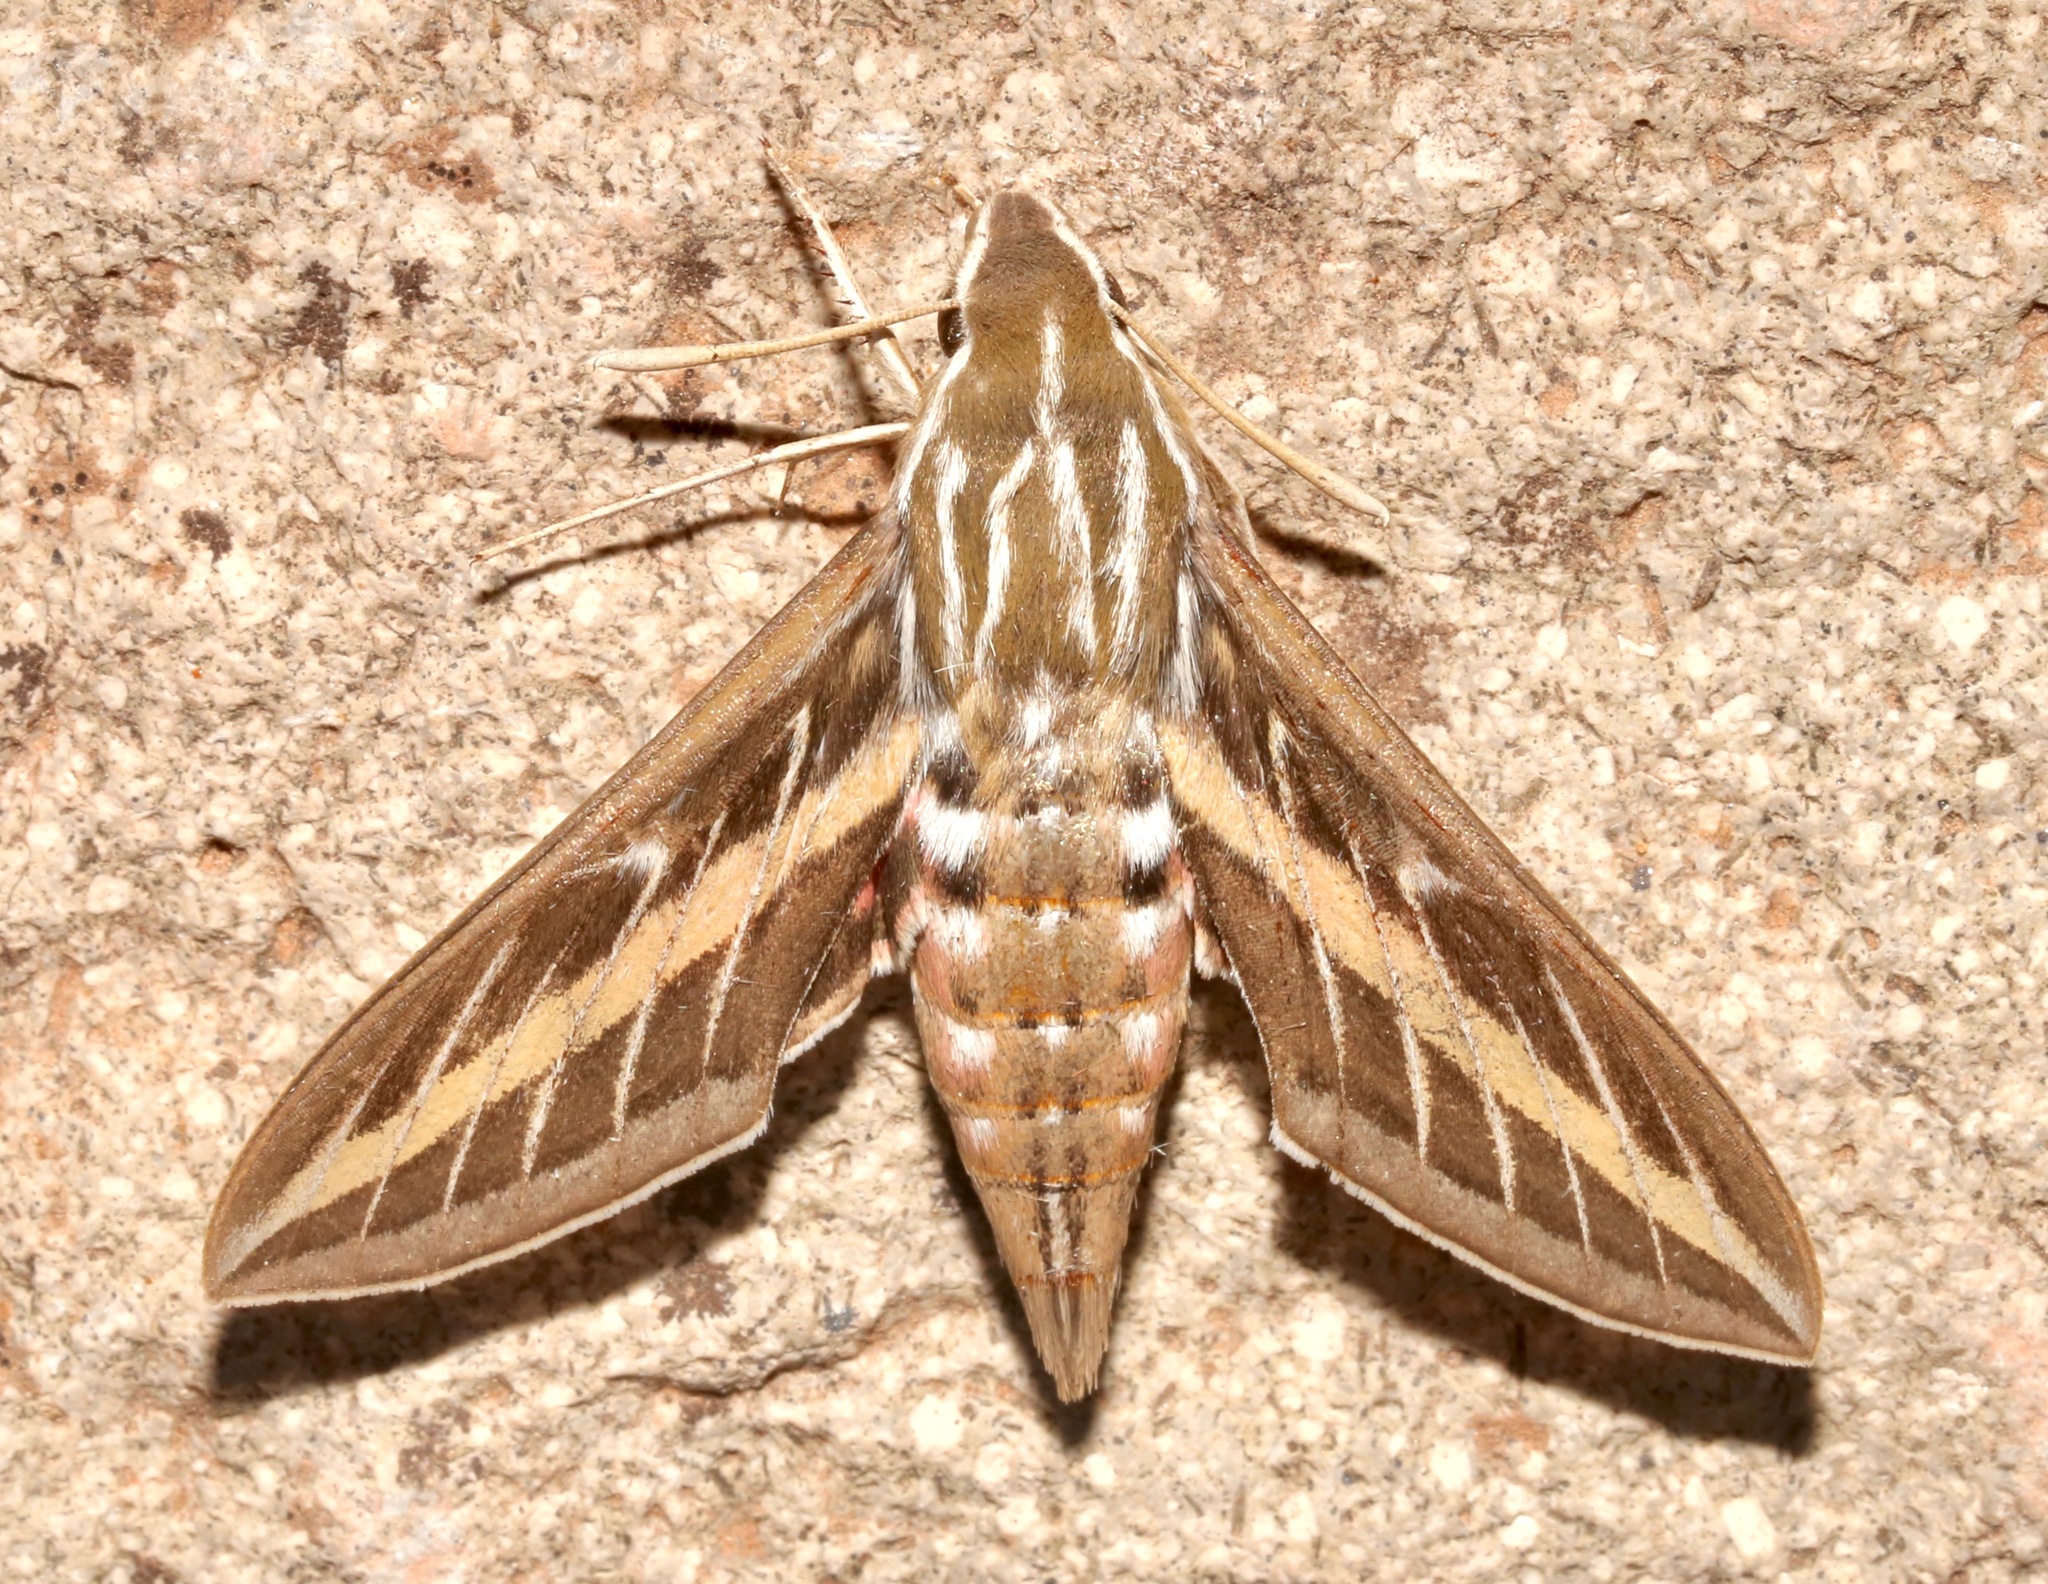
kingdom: Animalia
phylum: Arthropoda
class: Insecta
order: Lepidoptera
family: Sphingidae
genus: Hyles
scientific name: Hyles lineata
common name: White-lined sphinx
